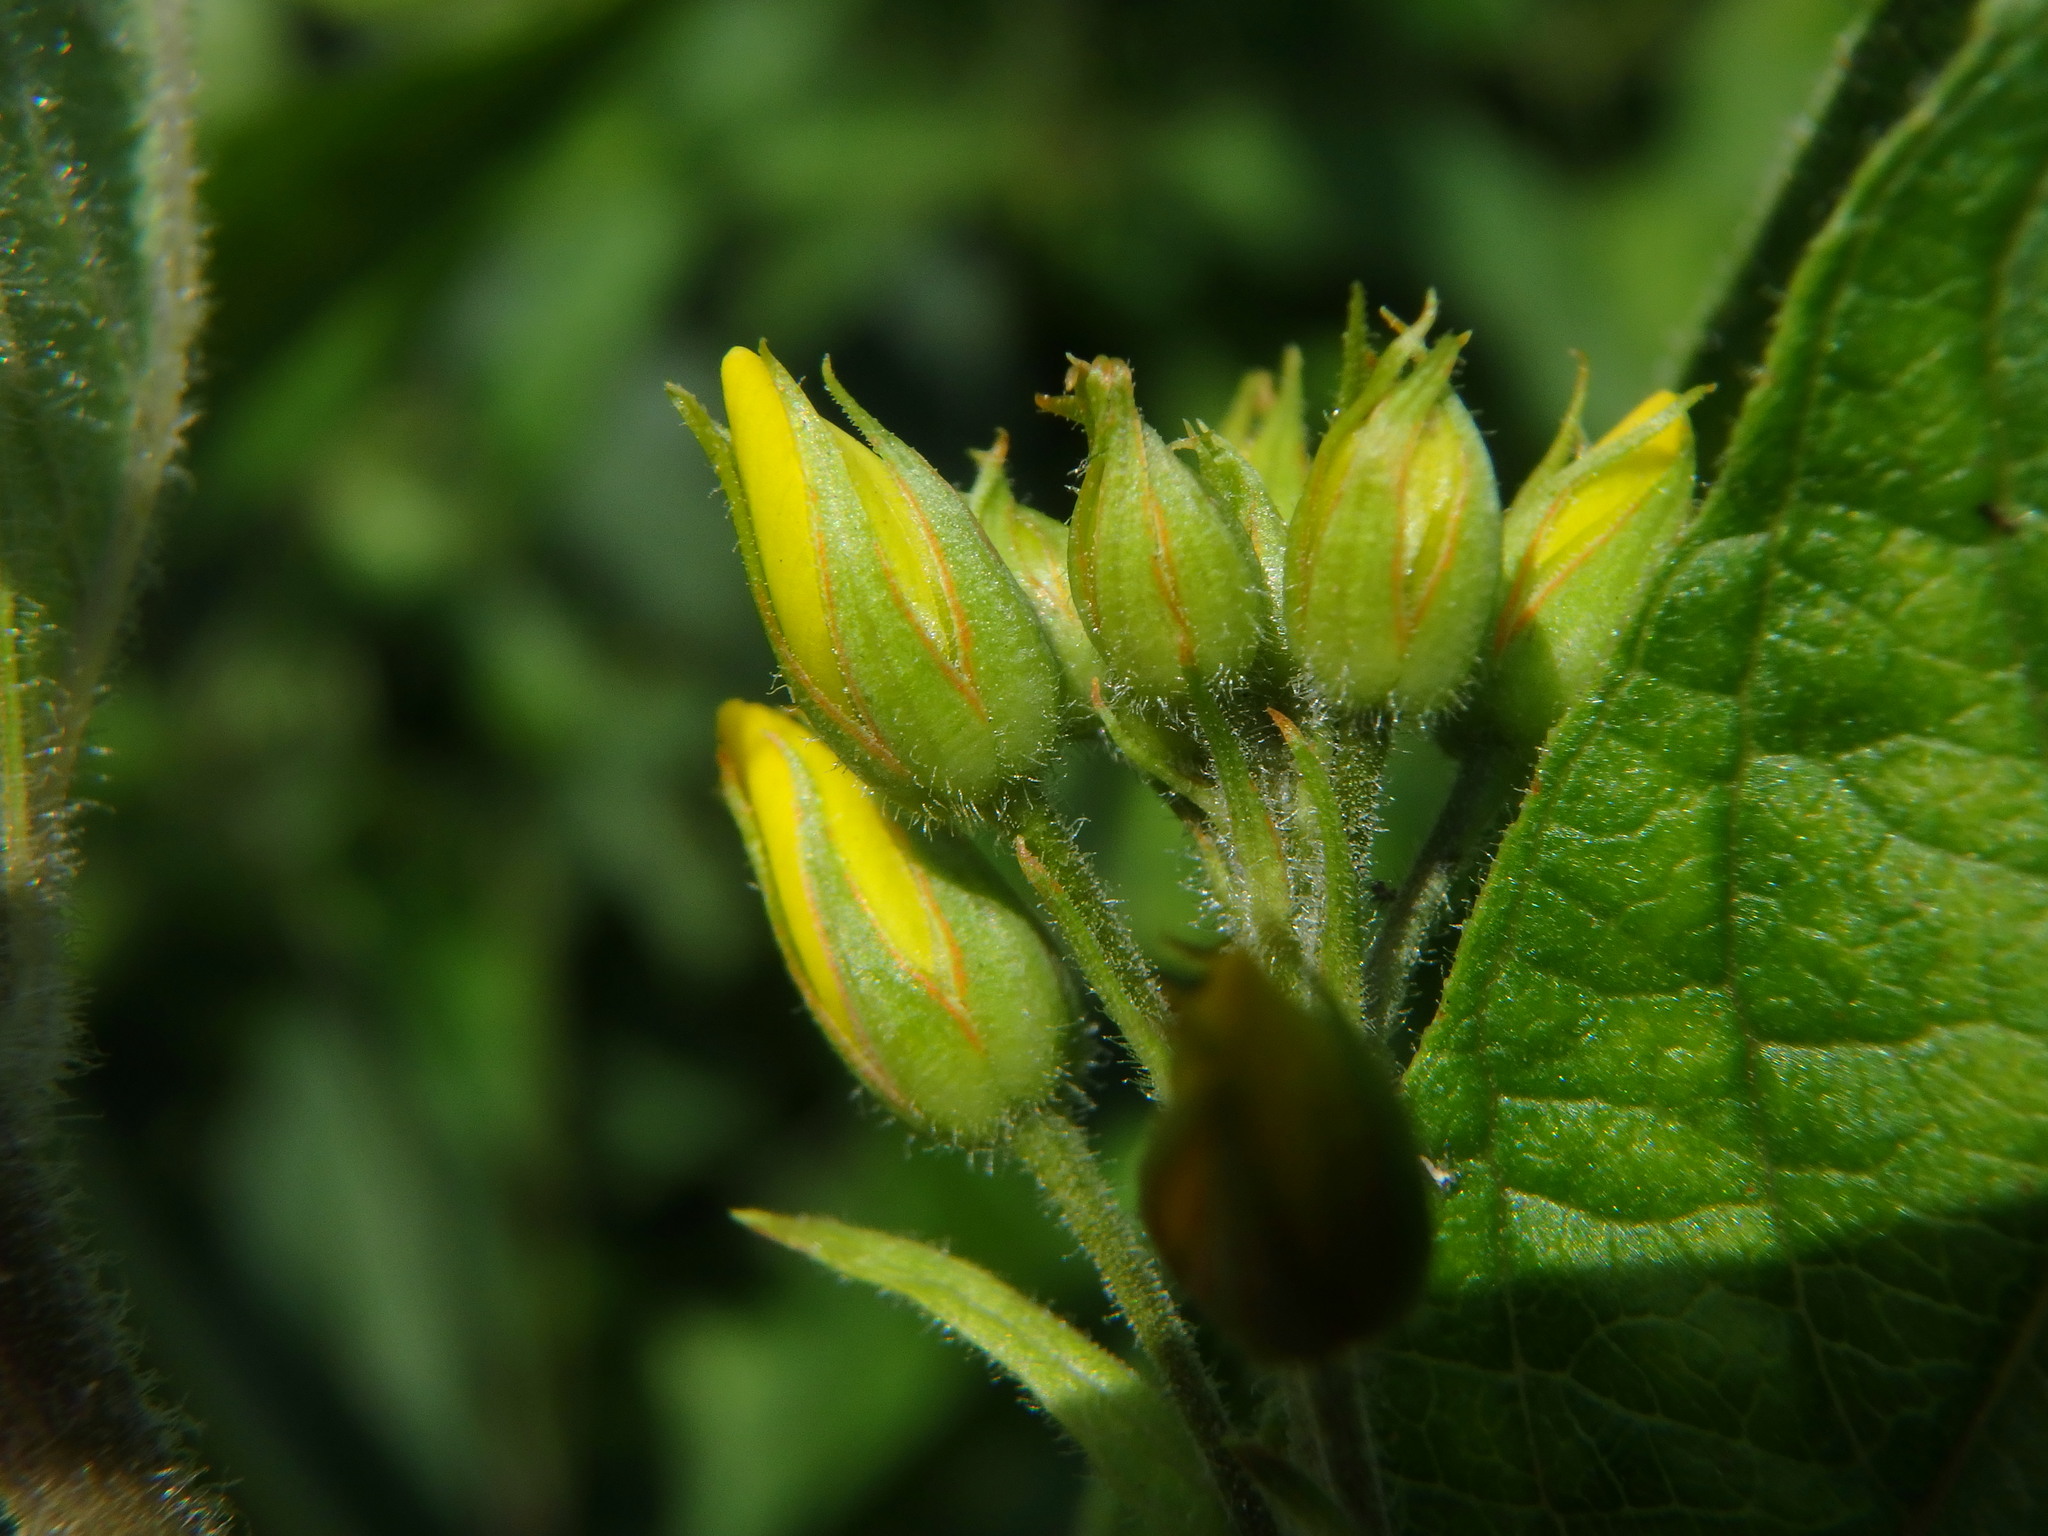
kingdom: Plantae
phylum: Tracheophyta
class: Magnoliopsida
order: Ericales
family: Primulaceae
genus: Lysimachia
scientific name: Lysimachia vulgaris
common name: Yellow loosestrife
